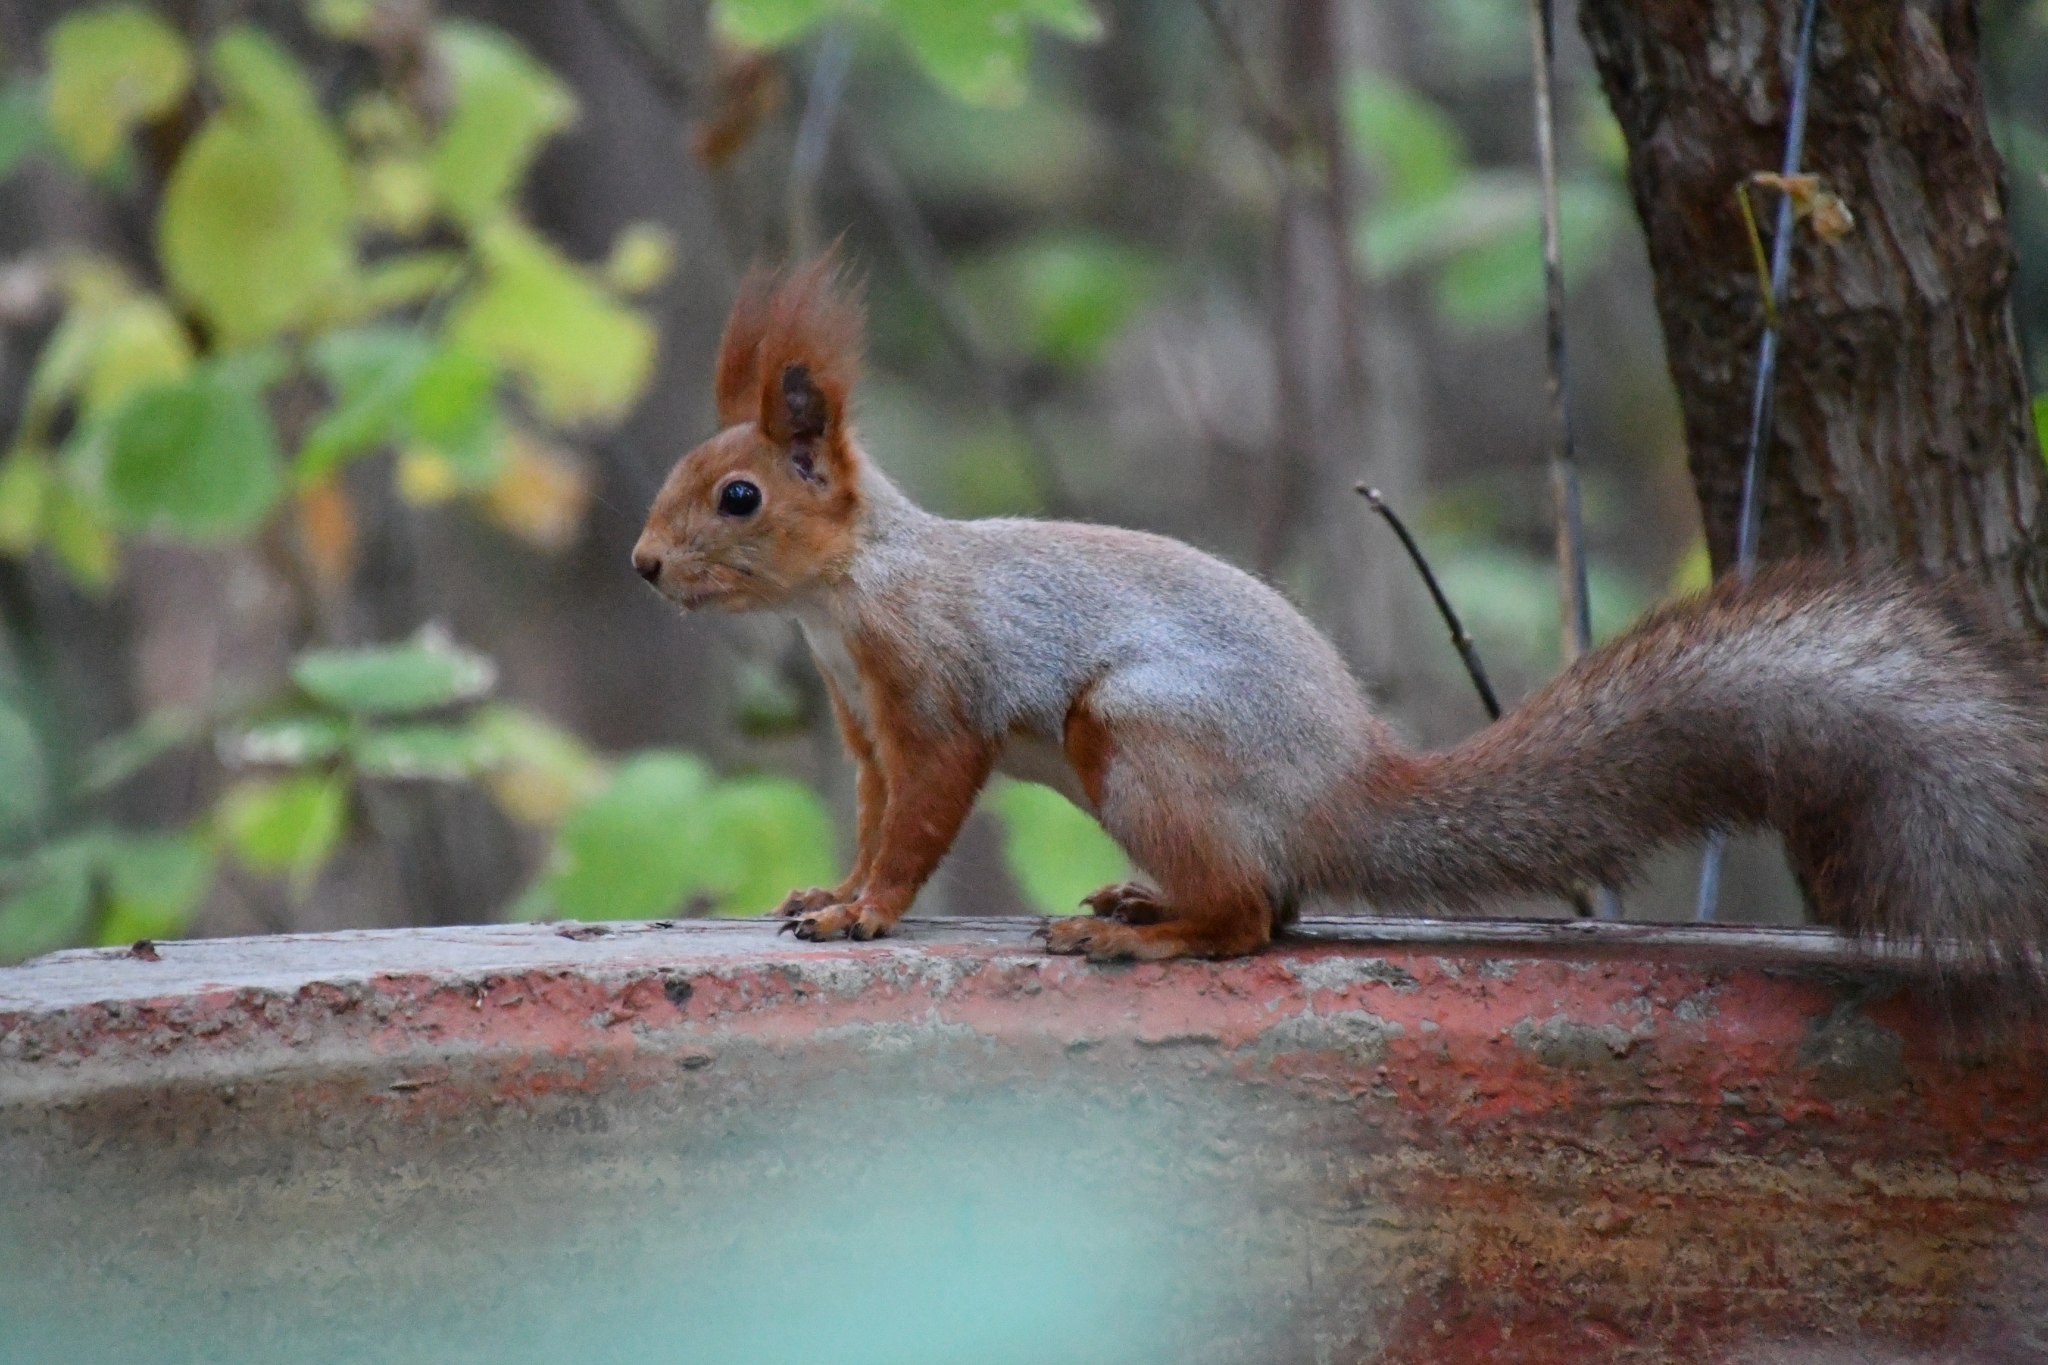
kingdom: Animalia
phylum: Chordata
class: Mammalia
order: Rodentia
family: Sciuridae
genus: Sciurus
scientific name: Sciurus vulgaris
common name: Eurasian red squirrel
